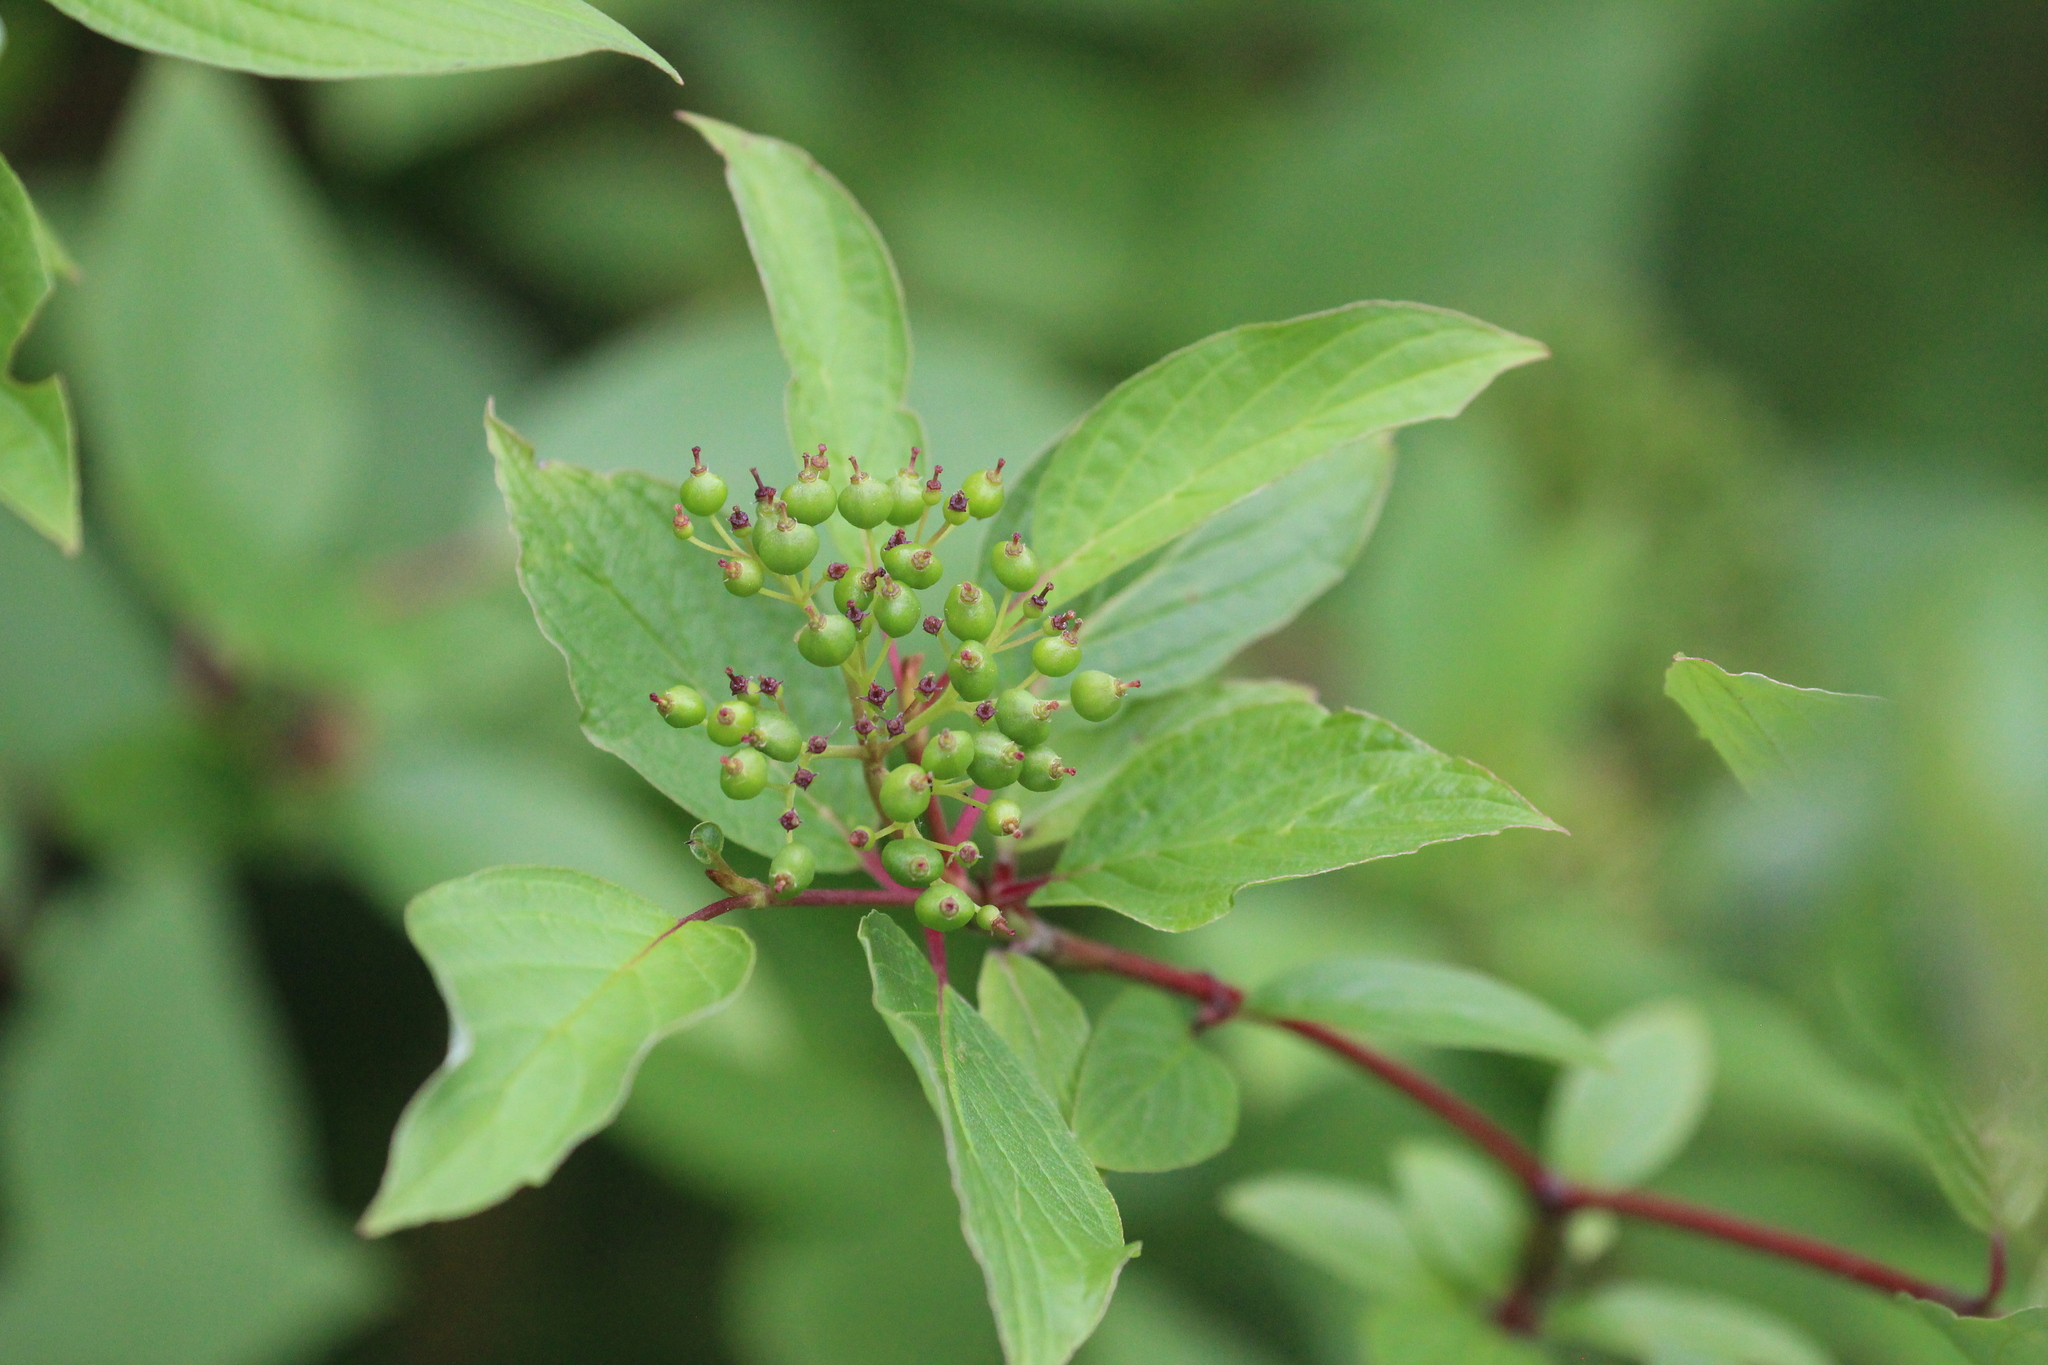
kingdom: Plantae
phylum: Tracheophyta
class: Magnoliopsida
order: Cornales
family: Cornaceae
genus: Cornus
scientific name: Cornus sericea
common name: Red-osier dogwood
